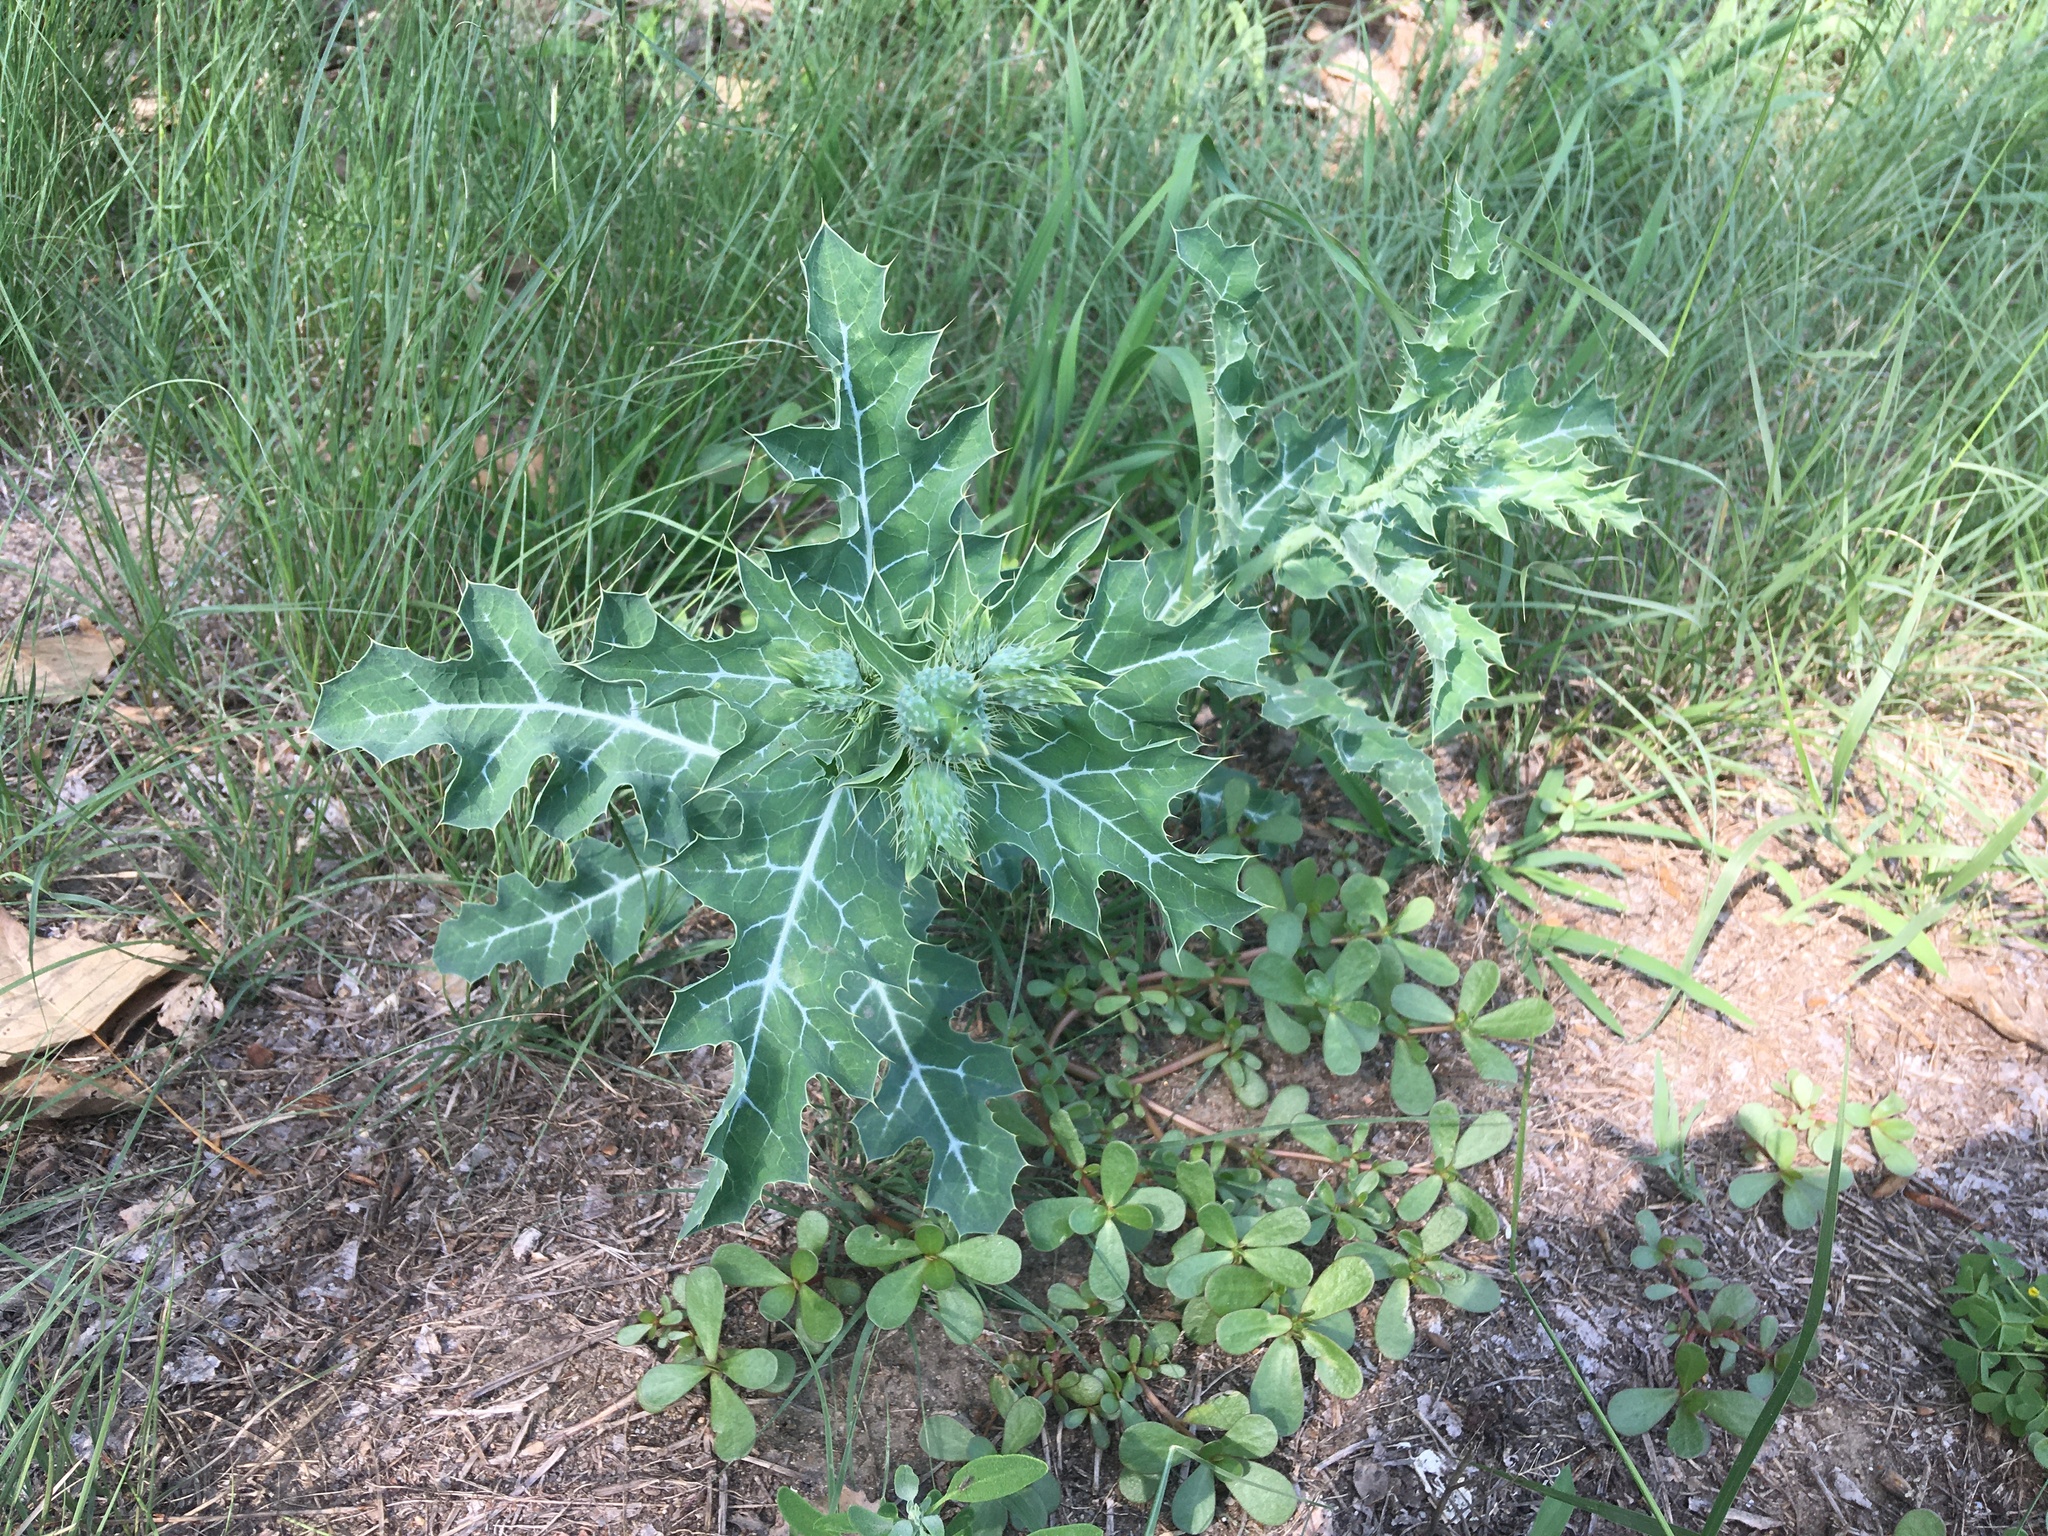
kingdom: Plantae
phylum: Tracheophyta
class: Magnoliopsida
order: Ranunculales
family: Papaveraceae
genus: Argemone
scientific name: Argemone polyanthemos
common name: Plains prickly-poppy
